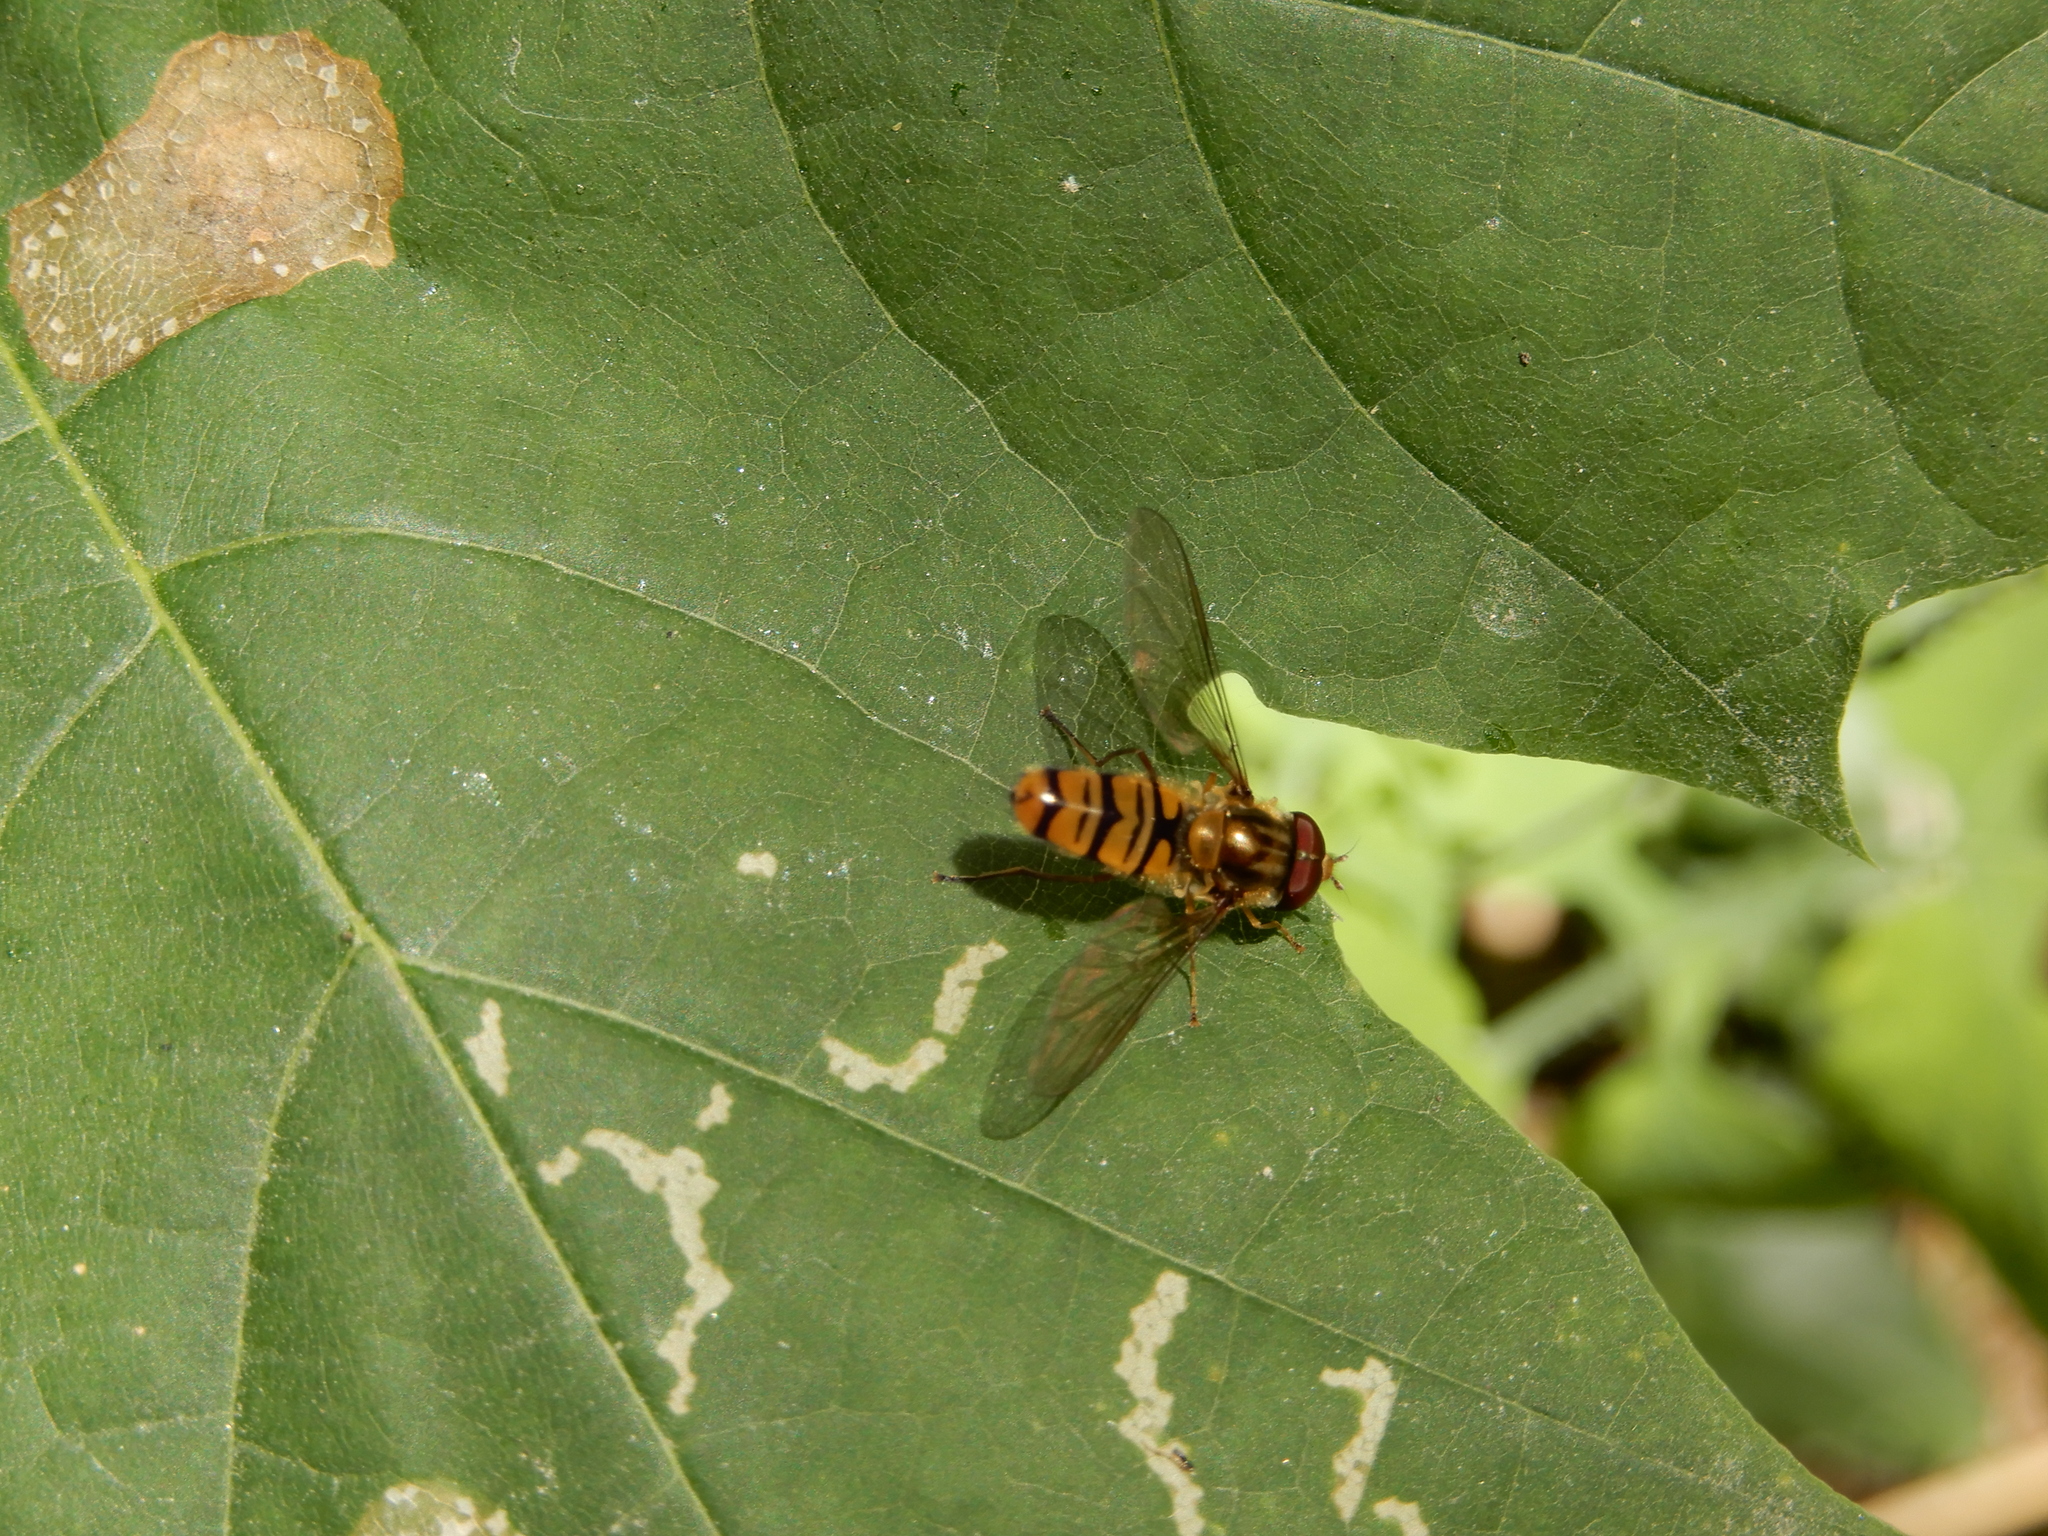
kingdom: Animalia
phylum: Arthropoda
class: Insecta
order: Diptera
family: Syrphidae
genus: Episyrphus
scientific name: Episyrphus balteatus
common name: Marmalade hoverfly
